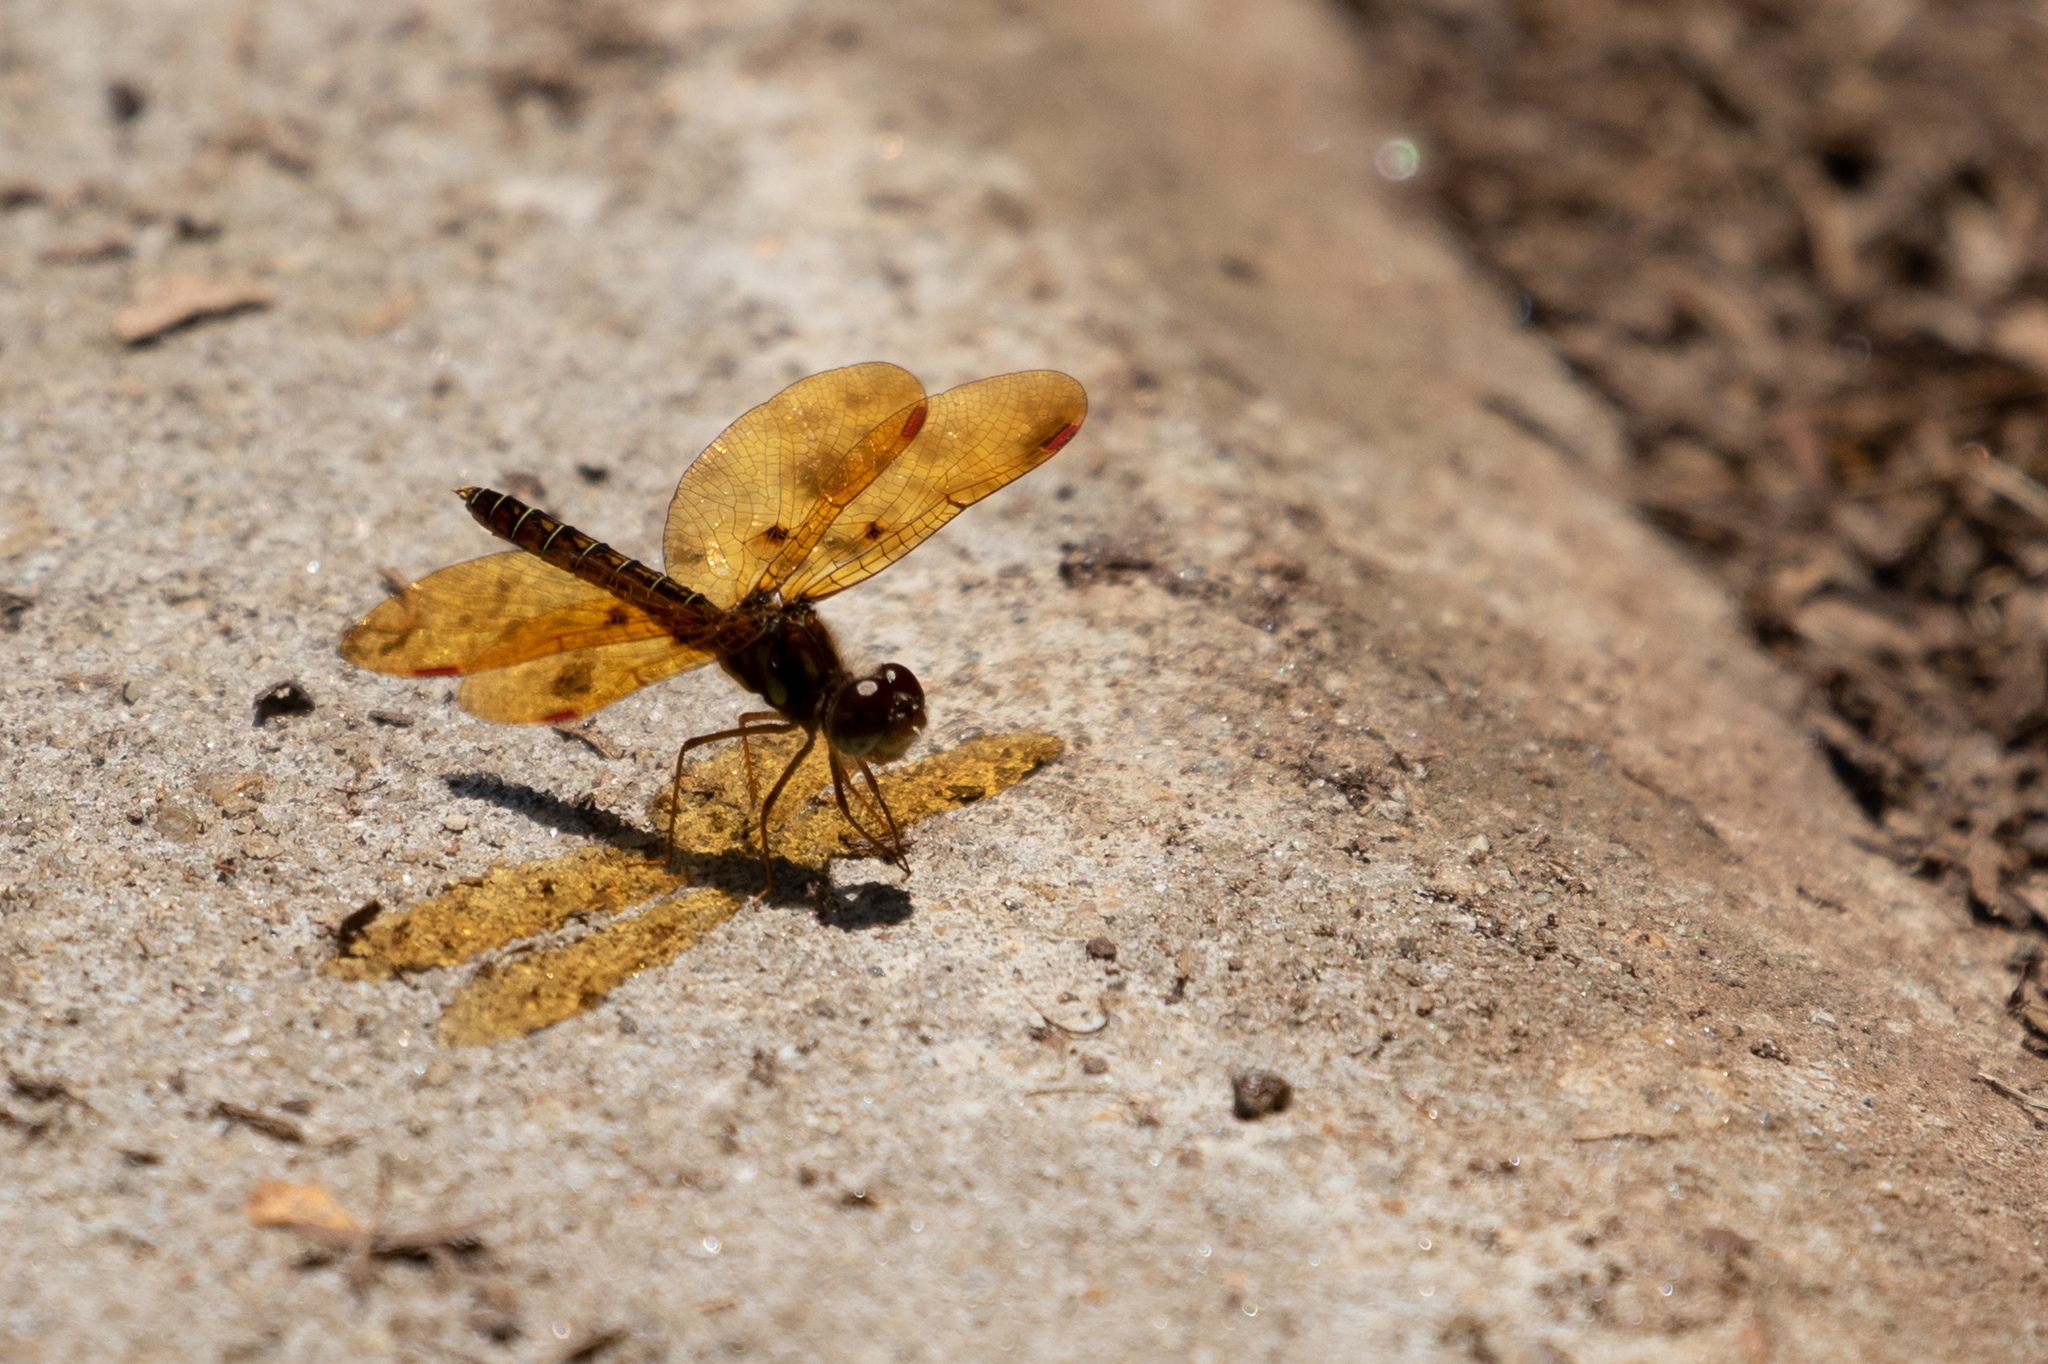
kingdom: Animalia
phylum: Arthropoda
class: Insecta
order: Odonata
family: Libellulidae
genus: Perithemis
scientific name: Perithemis tenera
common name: Eastern amberwing
